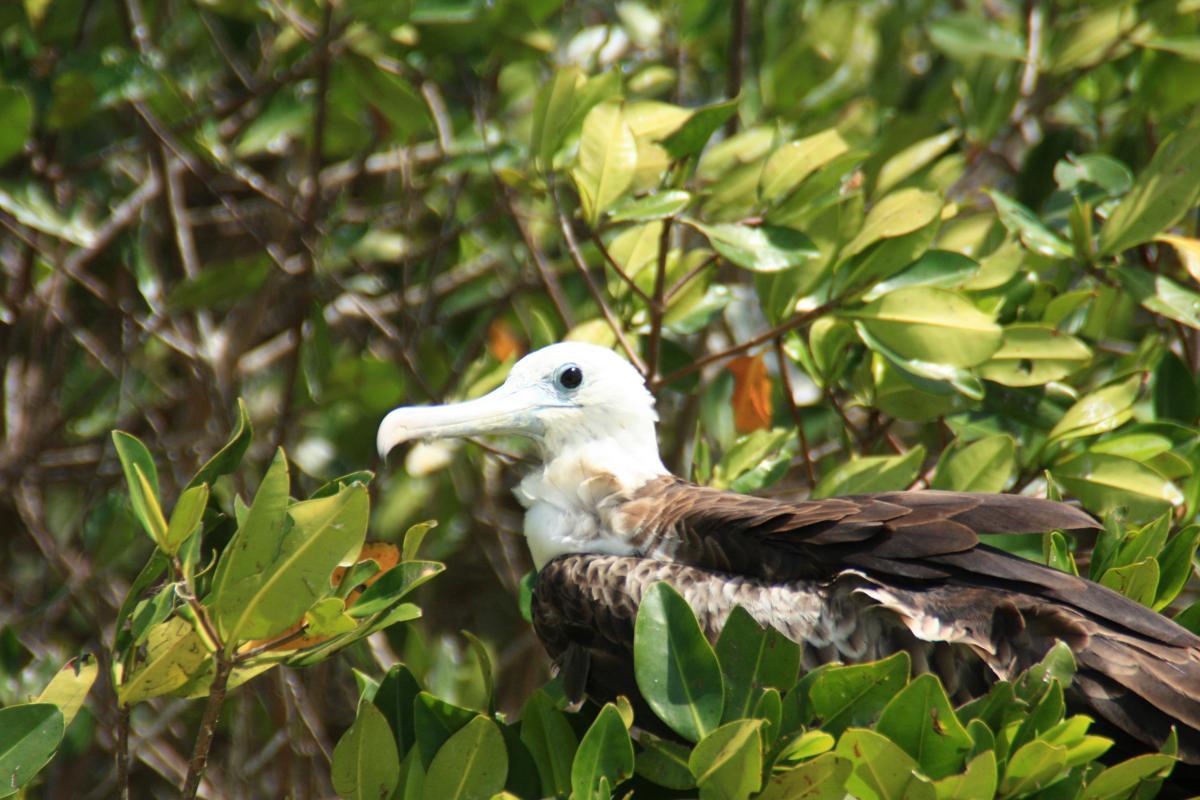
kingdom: Animalia
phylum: Chordata
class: Aves
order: Suliformes
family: Fregatidae
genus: Fregata
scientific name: Fregata magnificens
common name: Magnificent frigatebird
